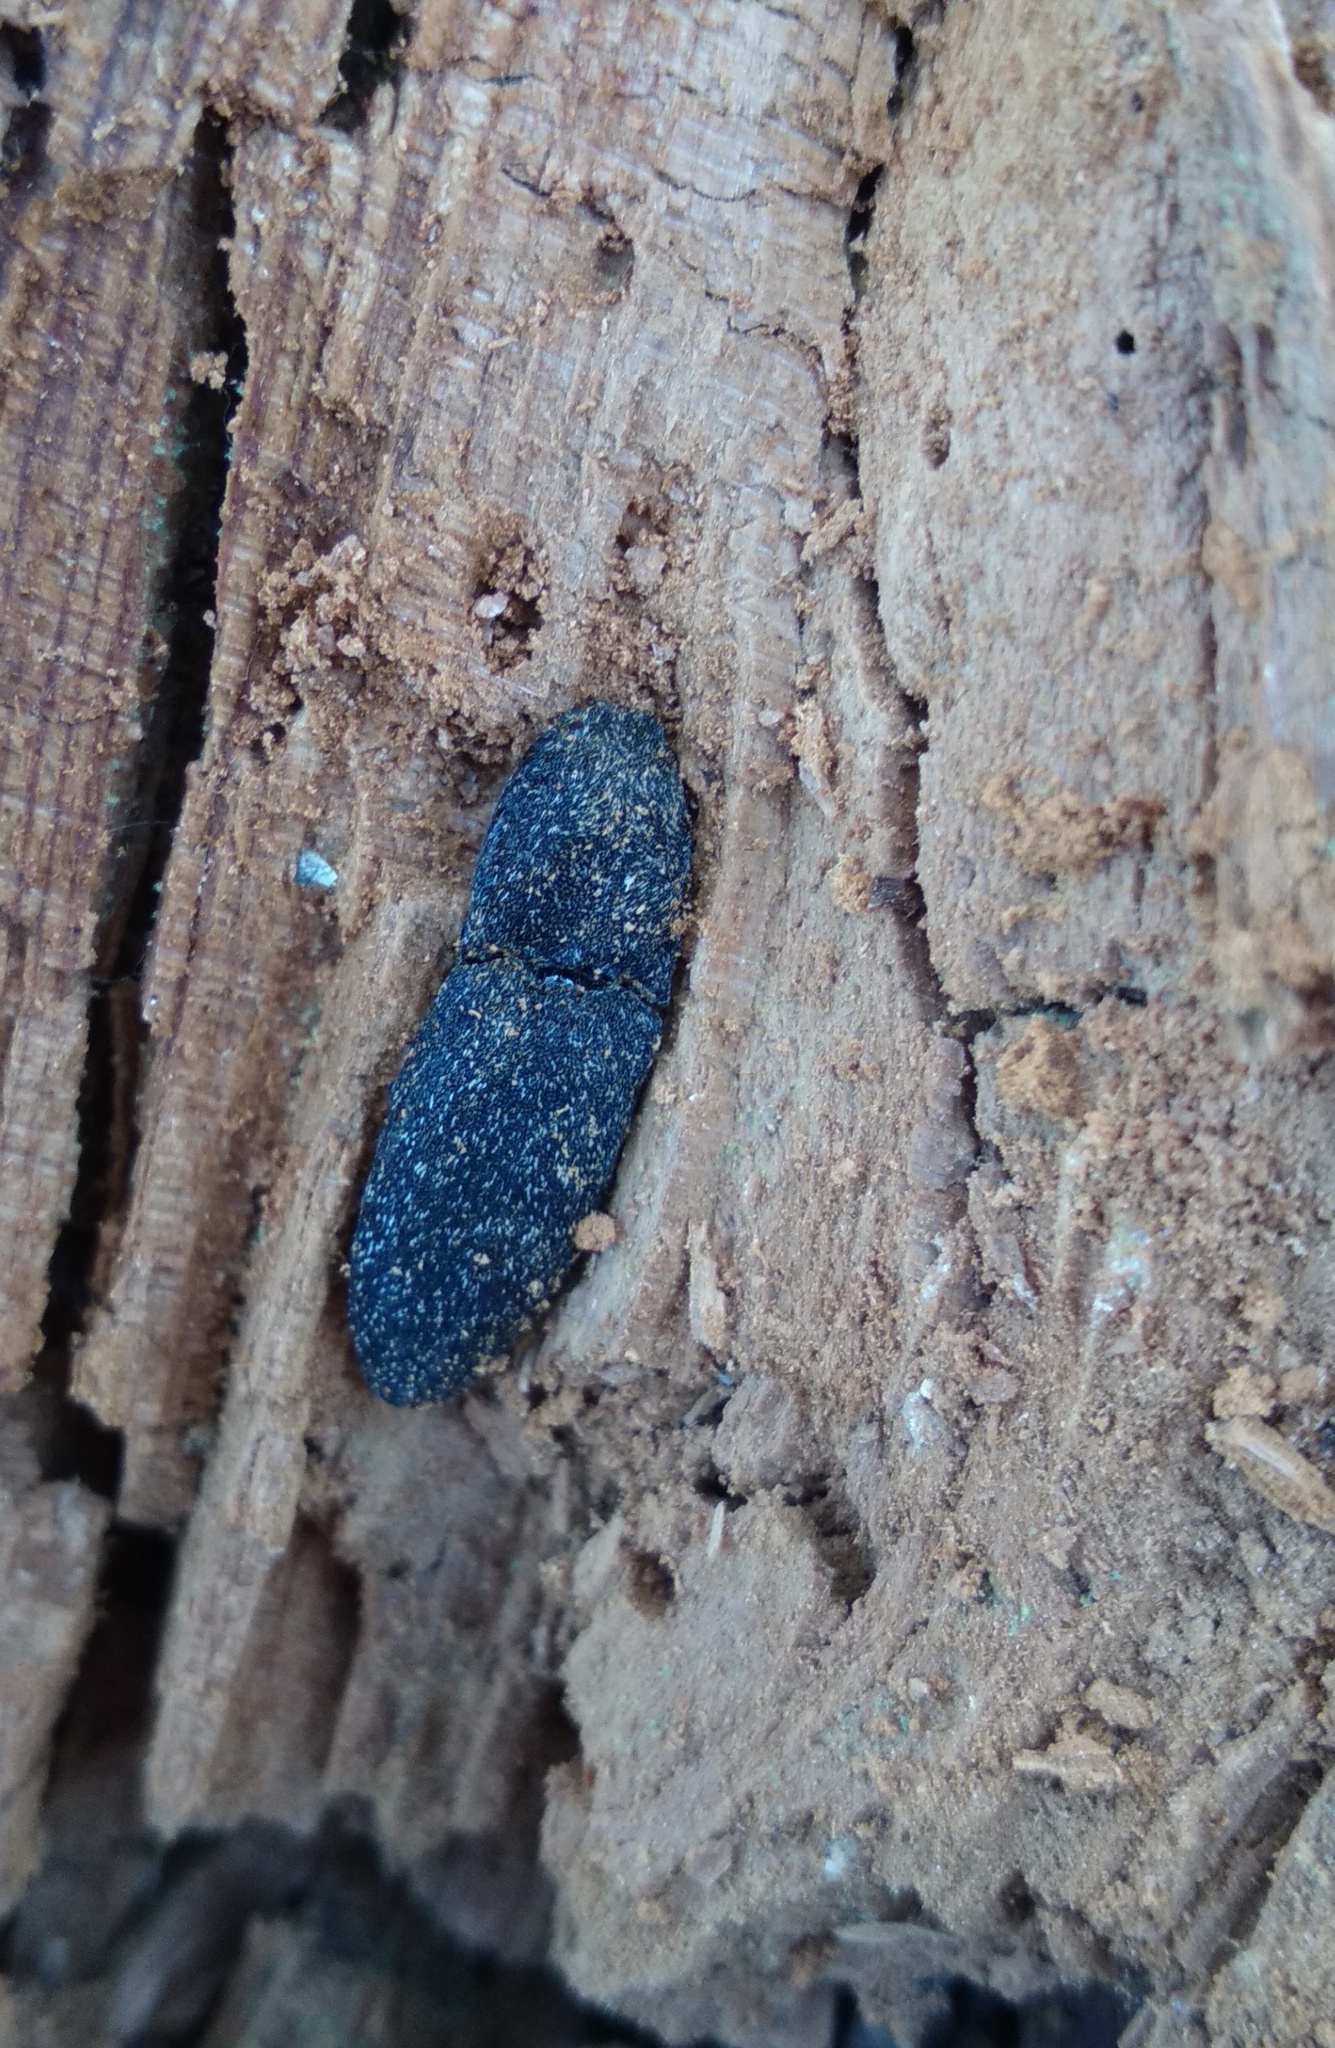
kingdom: Animalia
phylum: Arthropoda
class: Insecta
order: Coleoptera
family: Elateridae
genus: Lacon
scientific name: Lacon punctatus
